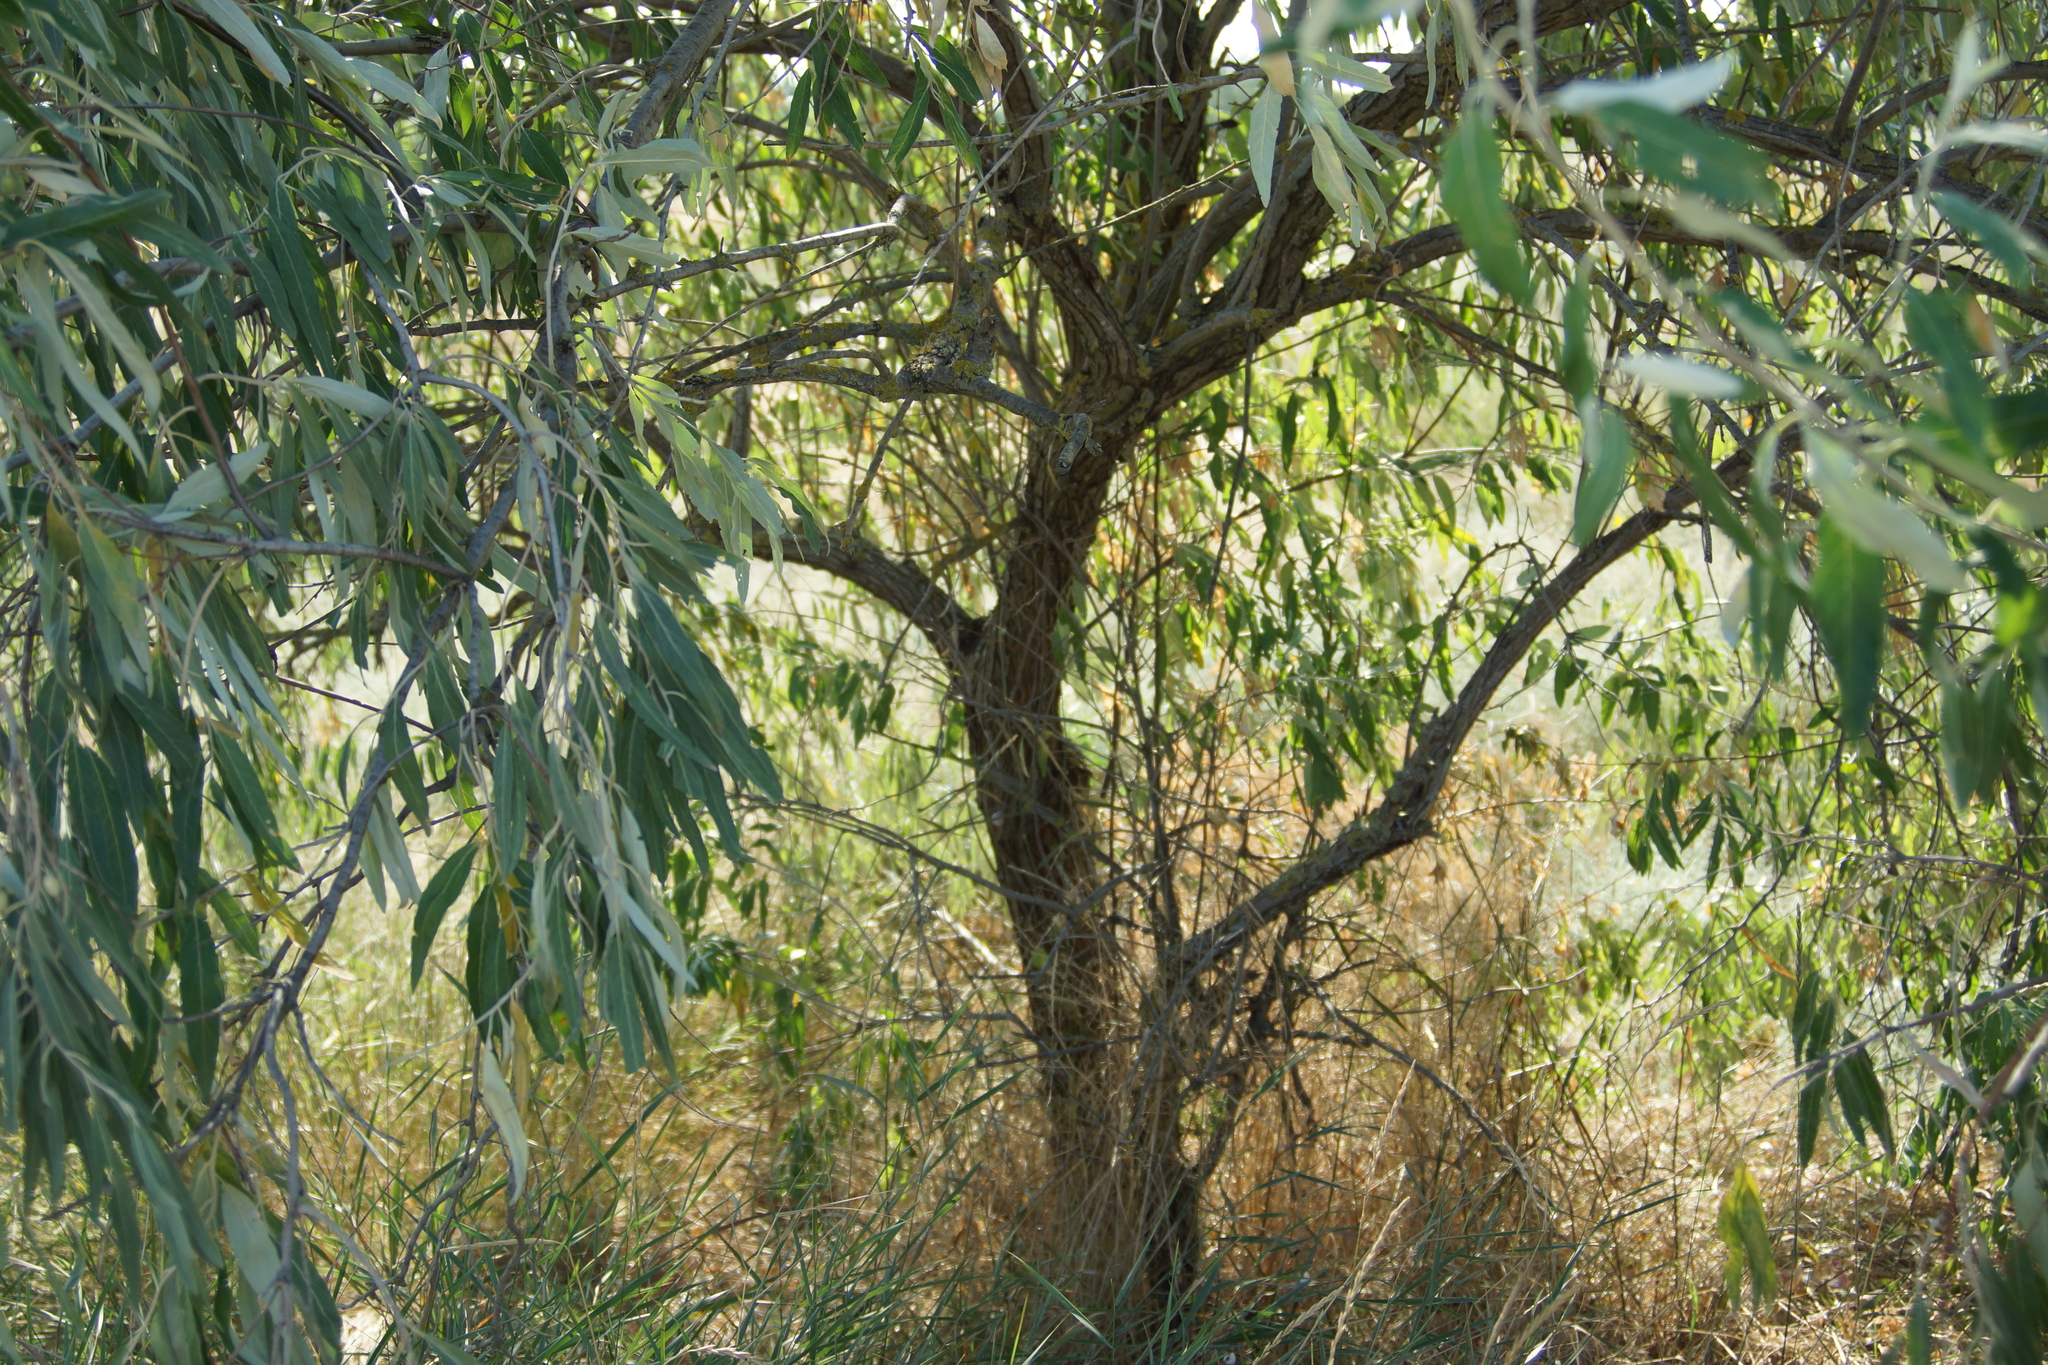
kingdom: Plantae
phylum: Tracheophyta
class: Magnoliopsida
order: Rosales
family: Elaeagnaceae
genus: Elaeagnus
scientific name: Elaeagnus angustifolia
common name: Russian olive
